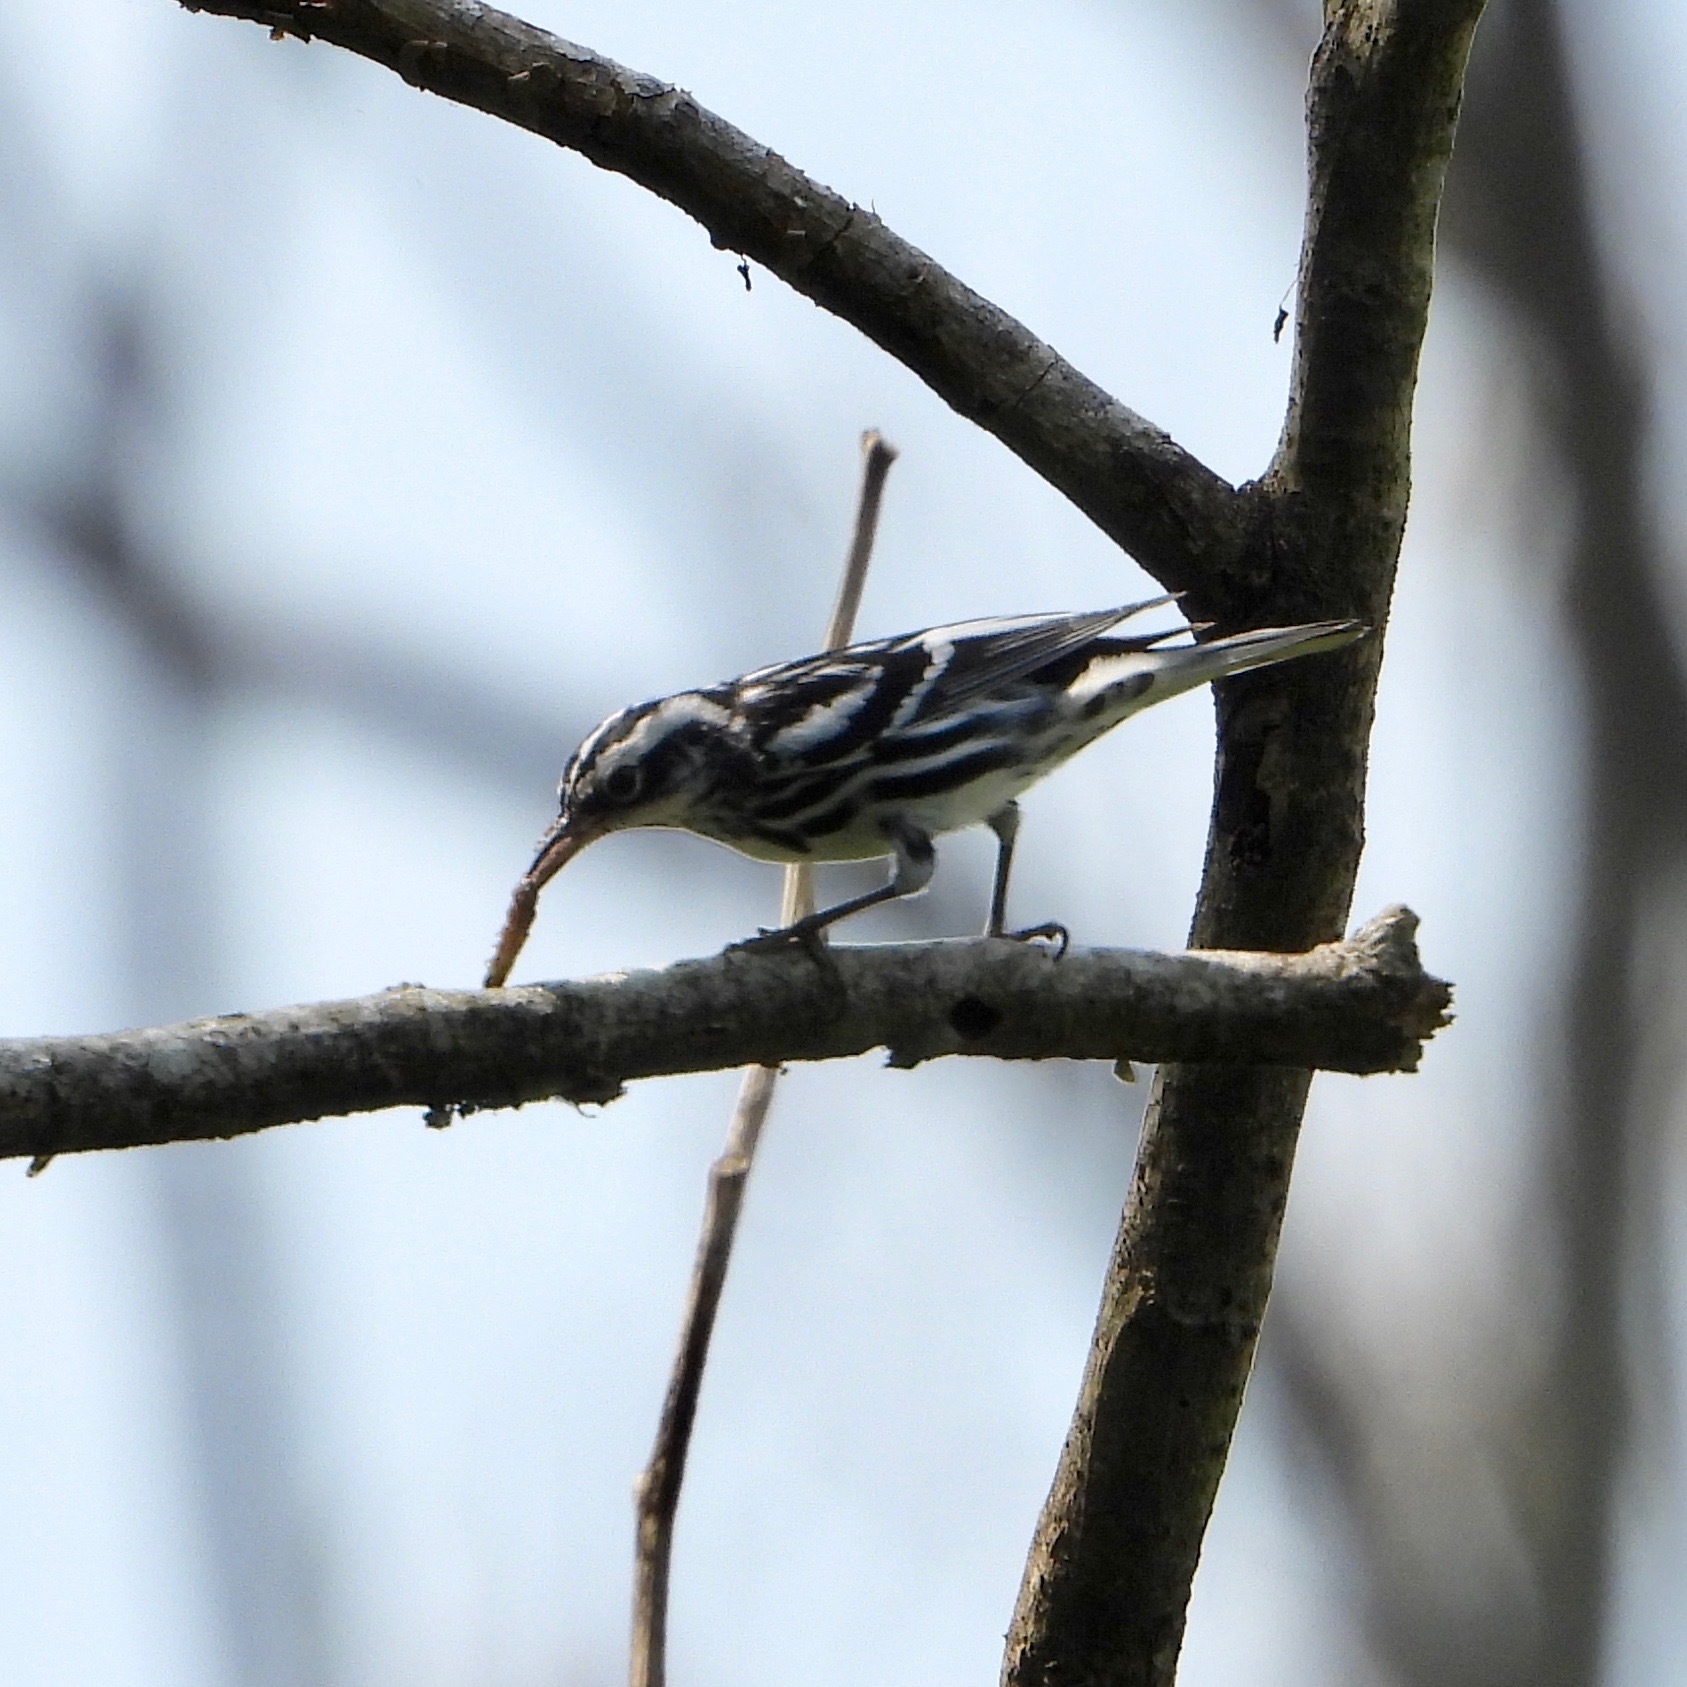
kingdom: Animalia
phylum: Chordata
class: Aves
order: Passeriformes
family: Parulidae
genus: Mniotilta
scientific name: Mniotilta varia
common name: Black-and-white warbler
